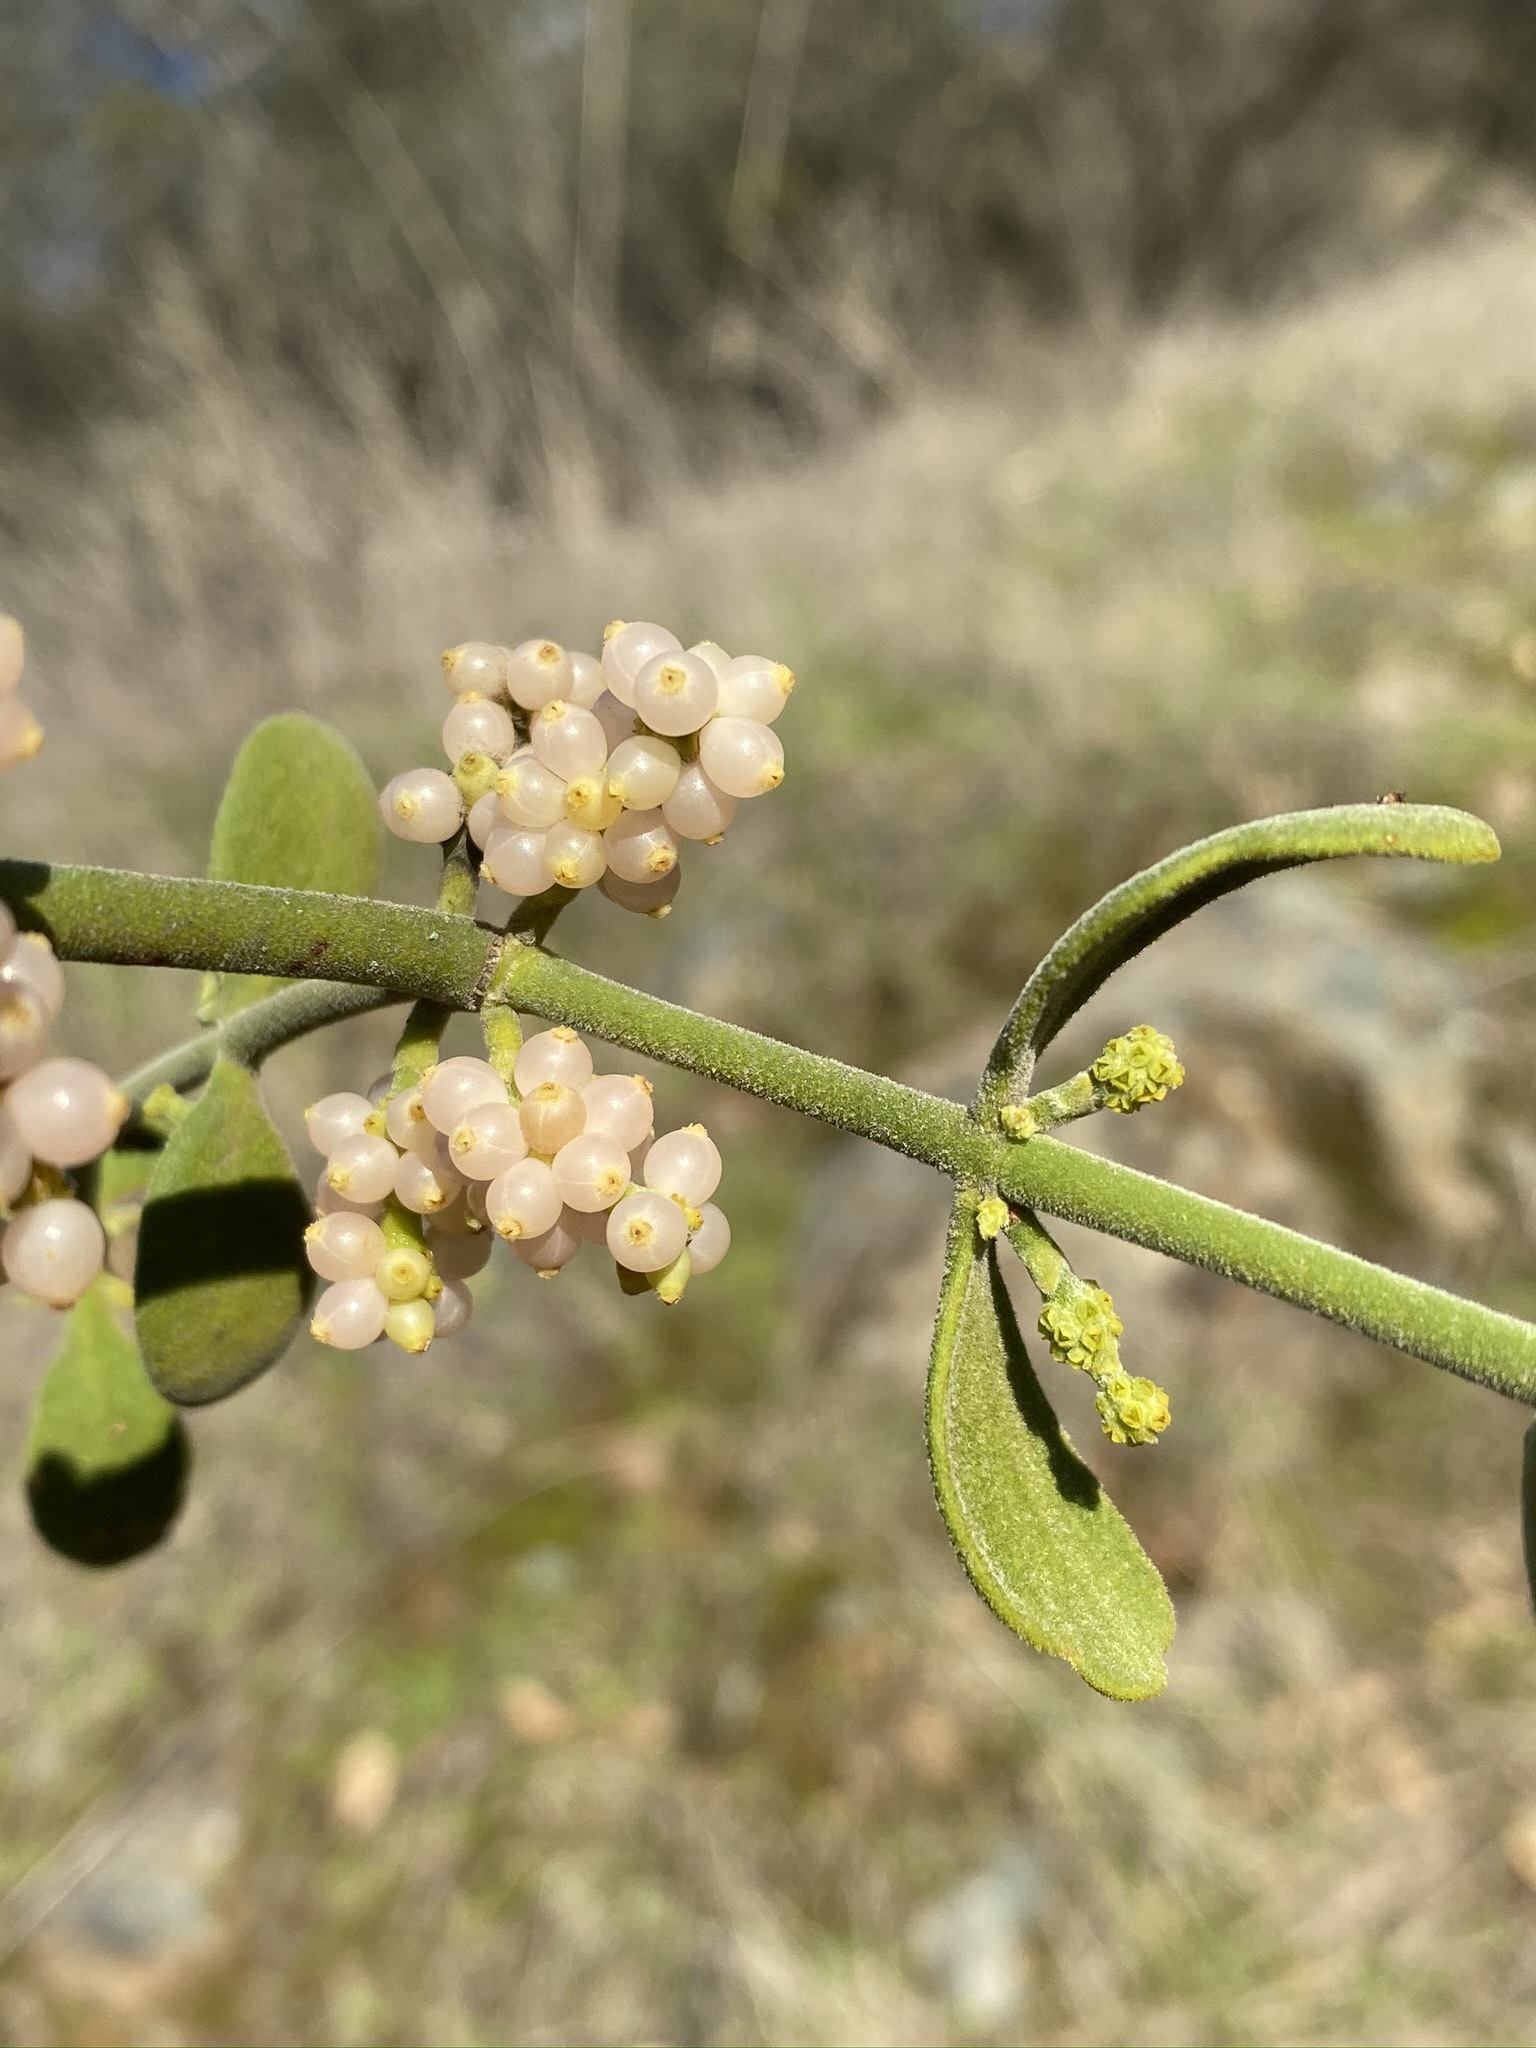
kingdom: Plantae
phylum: Tracheophyta
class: Magnoliopsida
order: Santalales
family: Viscaceae
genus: Phoradendron
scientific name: Phoradendron leucarpum
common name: Pacific mistletoe
